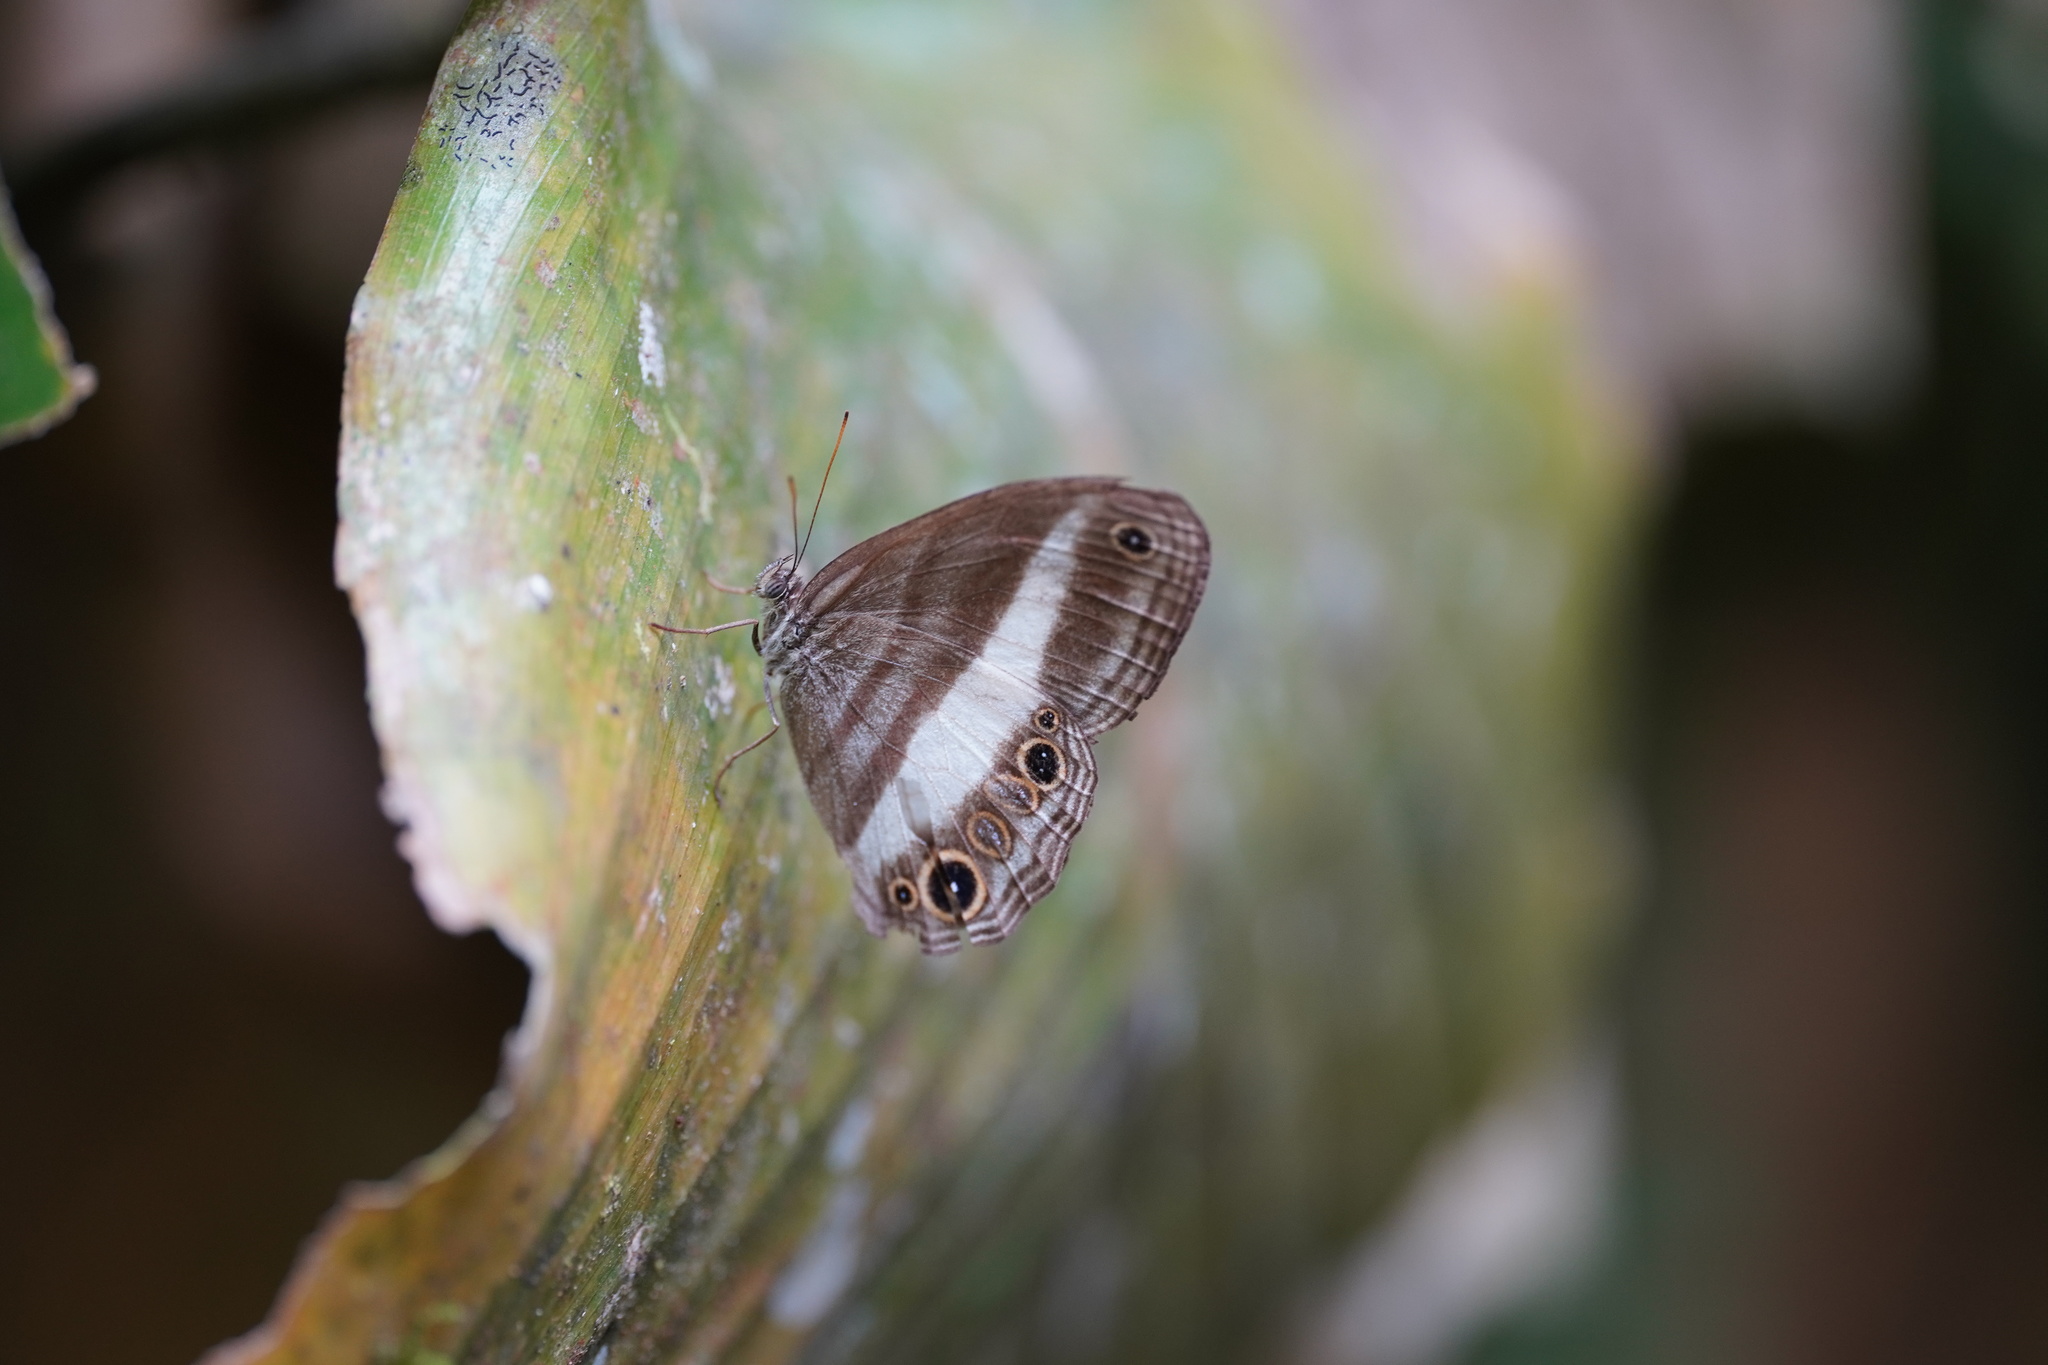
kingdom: Animalia
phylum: Arthropoda
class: Insecta
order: Lepidoptera
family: Nymphalidae
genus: Euptychoides
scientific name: Euptychoides albofasciata
